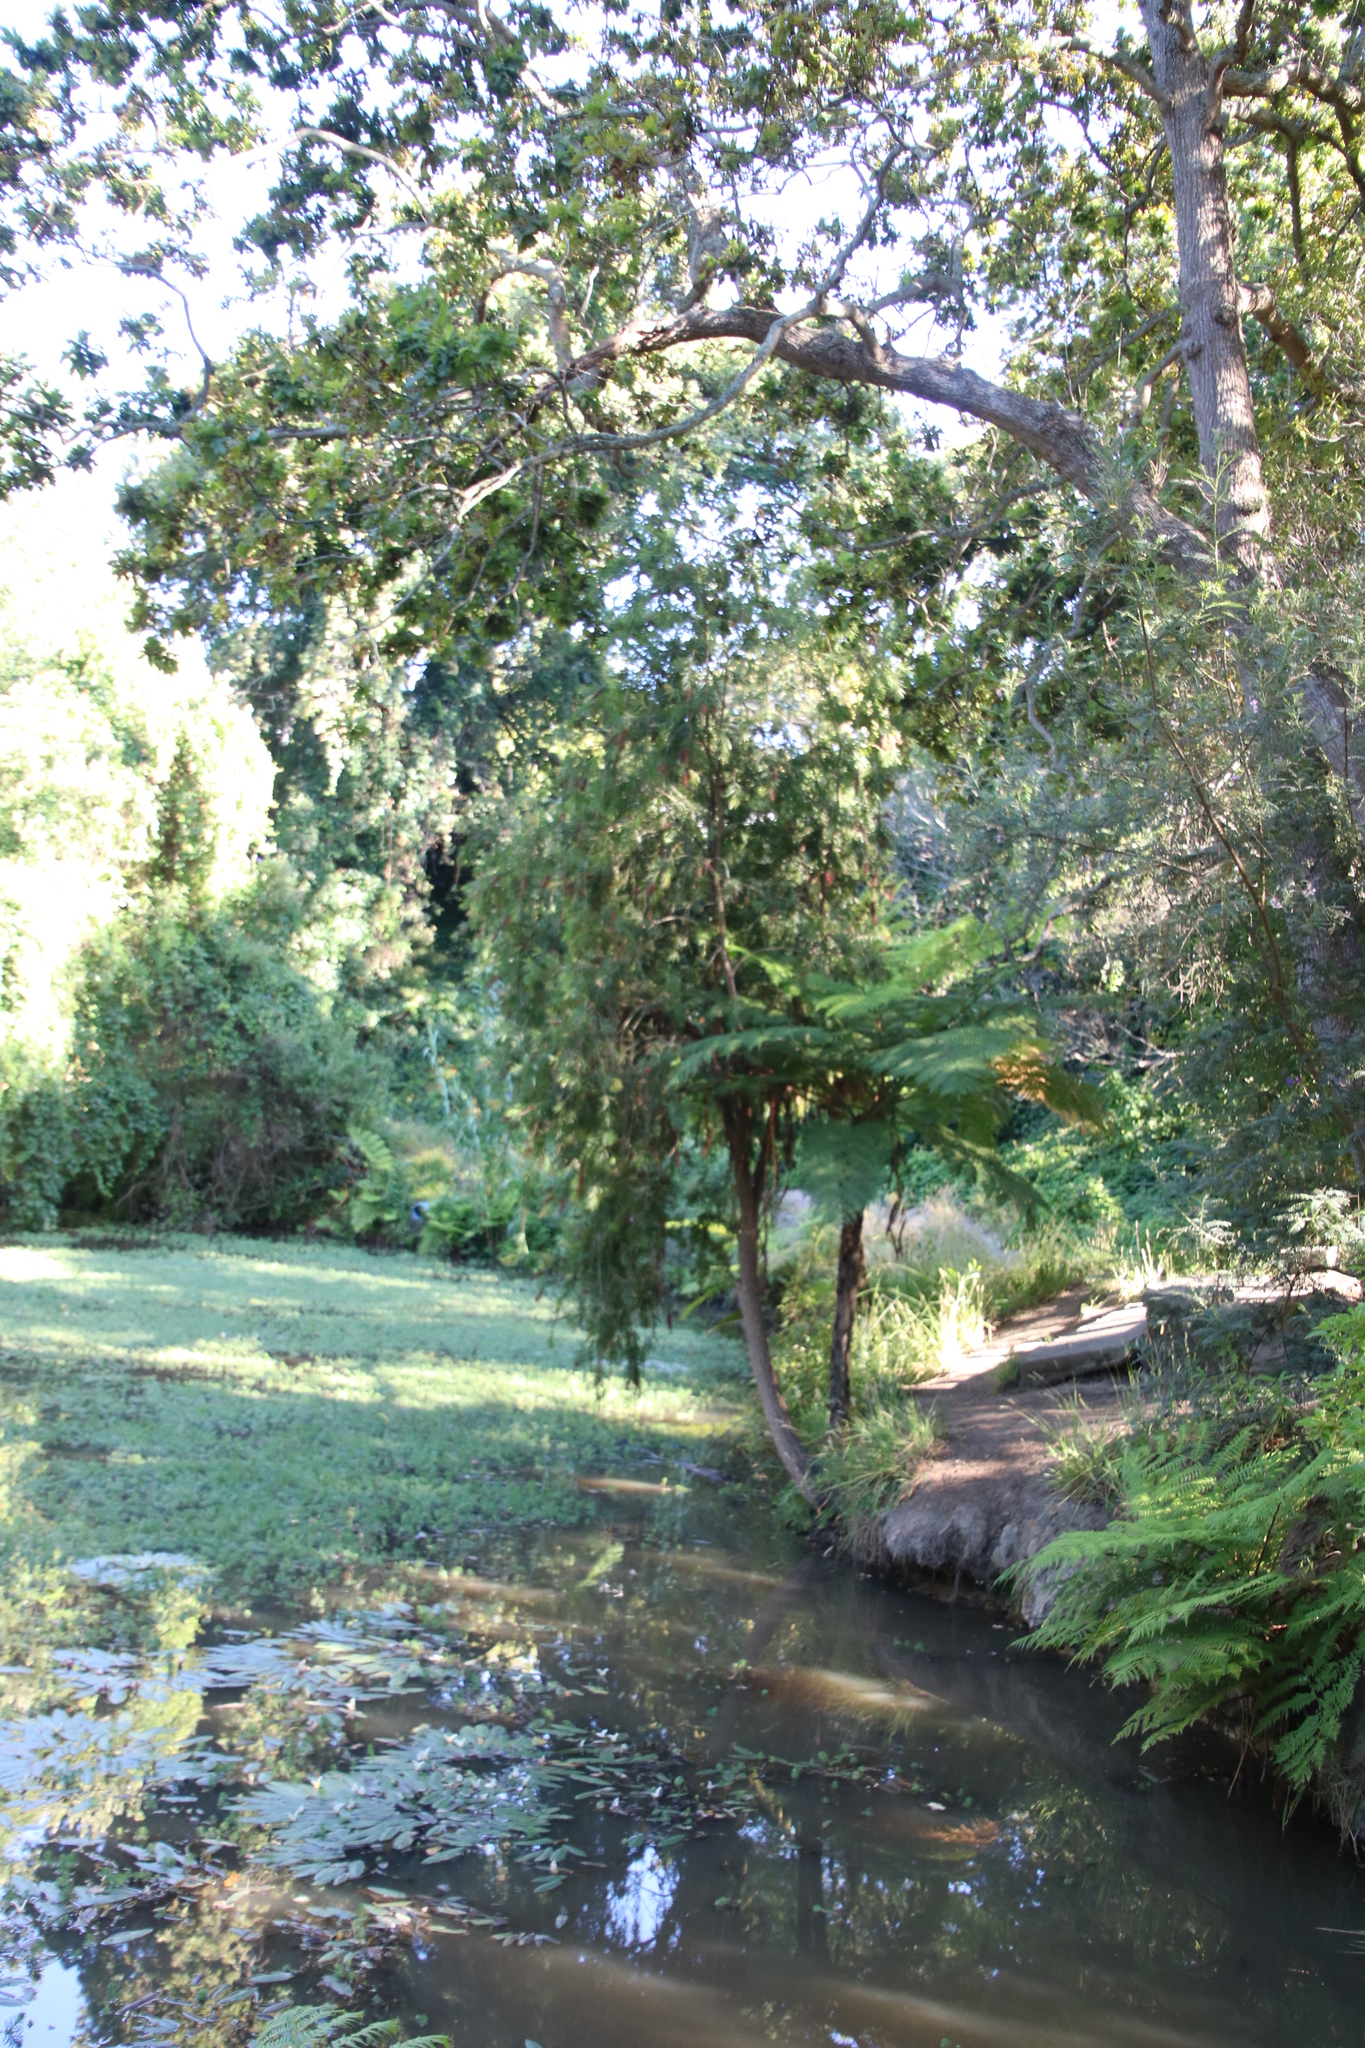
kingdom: Plantae
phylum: Tracheophyta
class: Polypodiopsida
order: Cyatheales
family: Cyatheaceae
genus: Sphaeropteris
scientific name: Sphaeropteris cooperi
